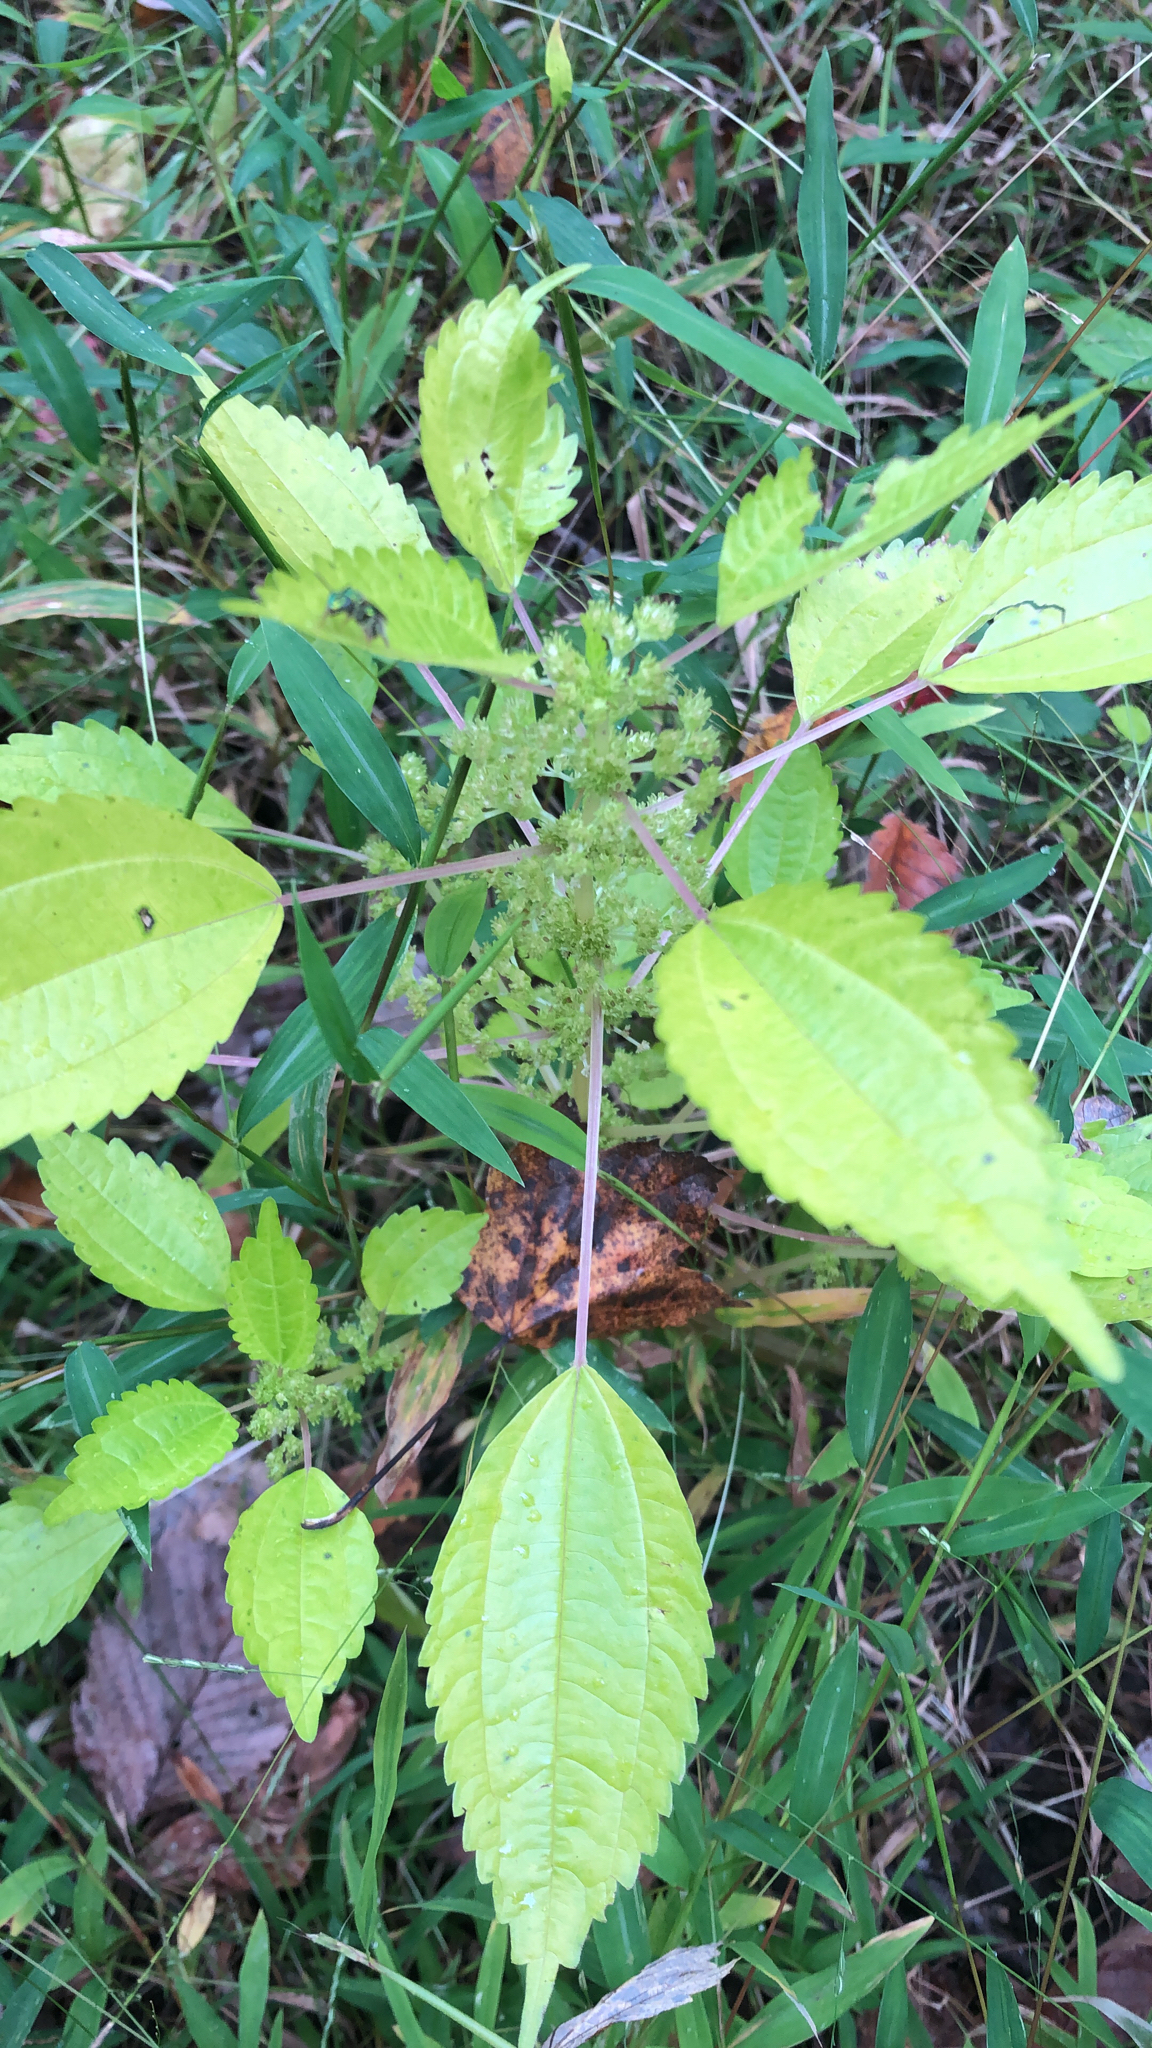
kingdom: Plantae
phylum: Tracheophyta
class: Magnoliopsida
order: Rosales
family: Urticaceae
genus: Pilea
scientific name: Pilea pumila
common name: Clearweed
